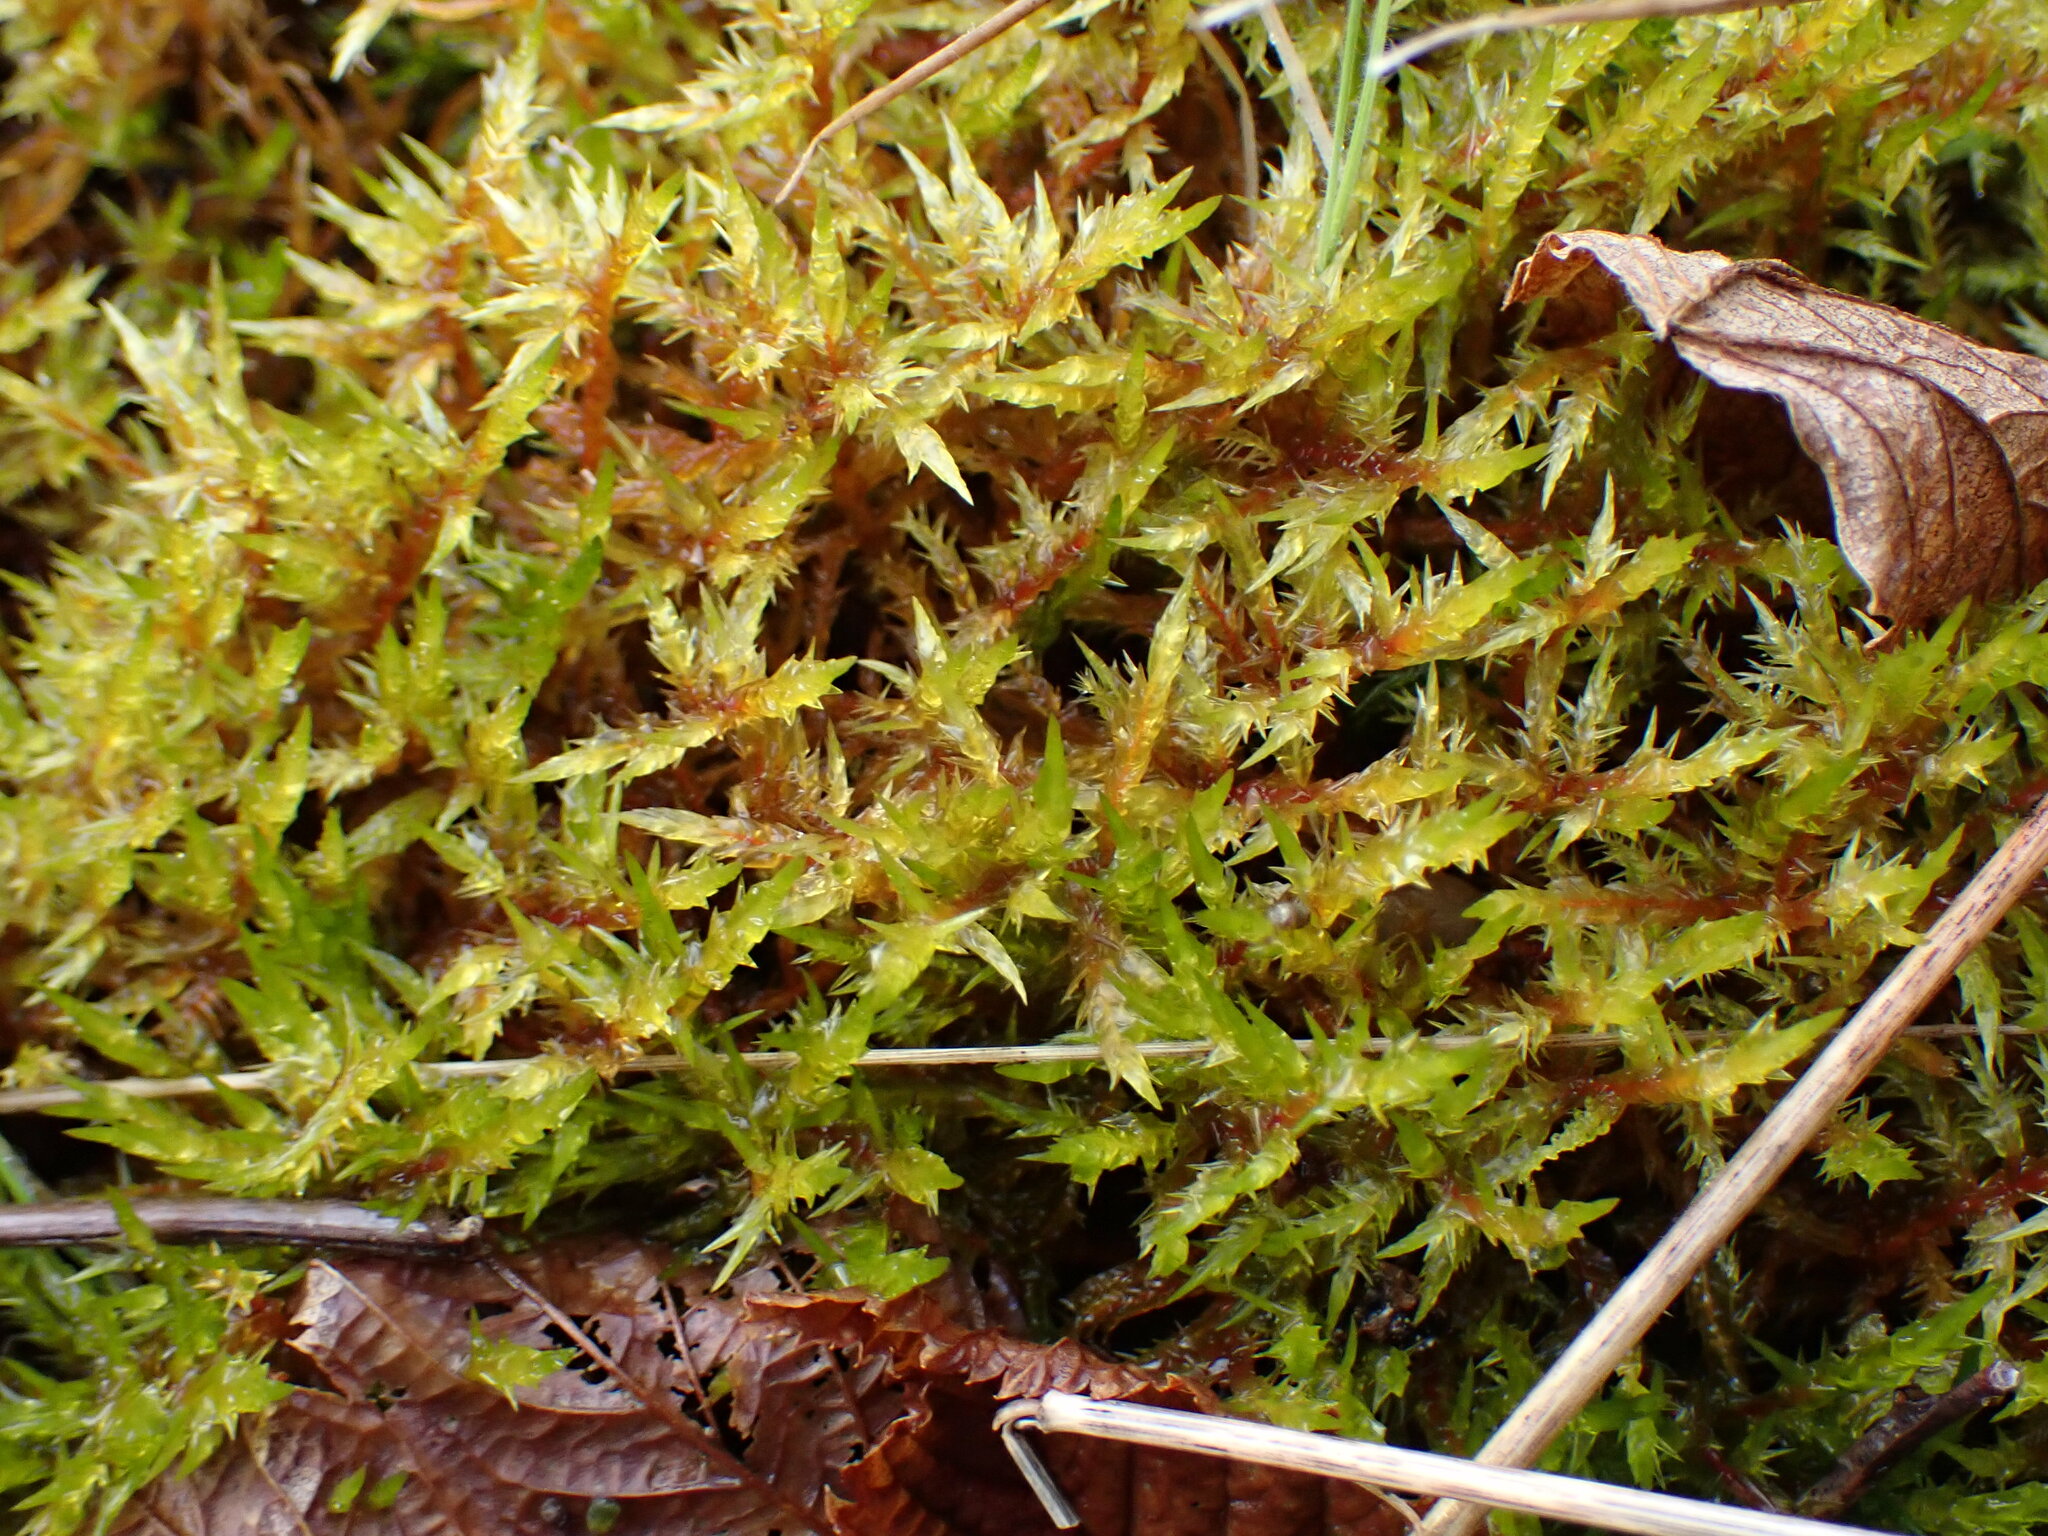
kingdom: Plantae
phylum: Bryophyta
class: Bryopsida
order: Hypnales
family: Pylaisiaceae
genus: Calliergonella
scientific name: Calliergonella cuspidata
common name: Common large wetland moss
